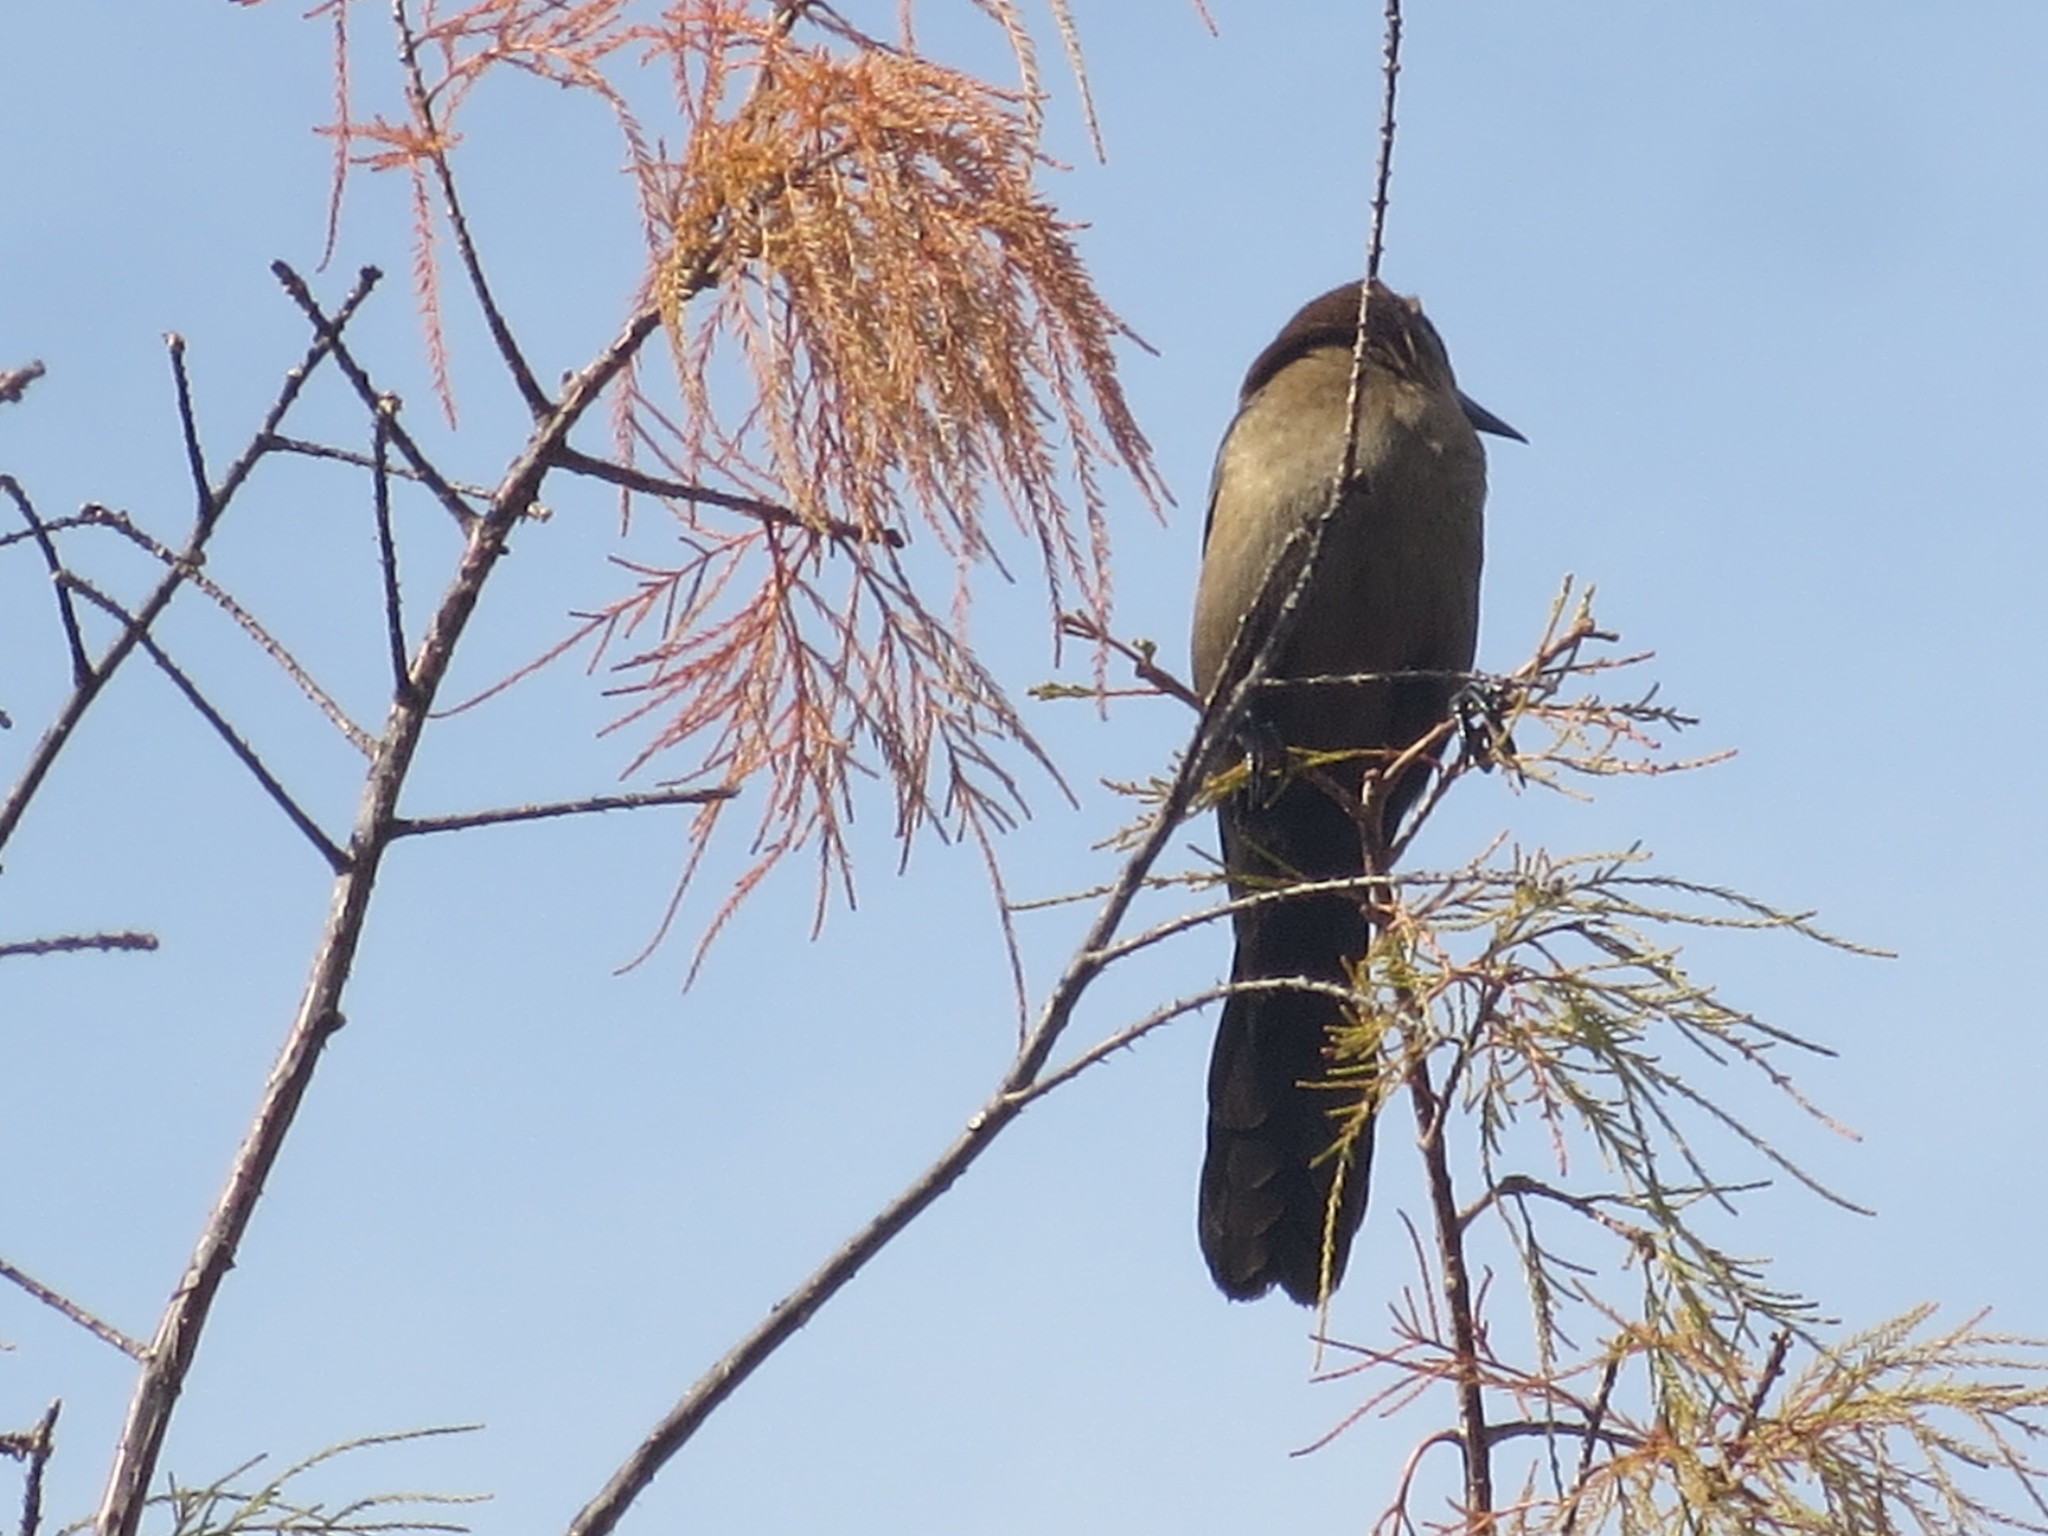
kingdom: Animalia
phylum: Chordata
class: Aves
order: Passeriformes
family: Icteridae
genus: Quiscalus
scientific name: Quiscalus major
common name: Boat-tailed grackle
